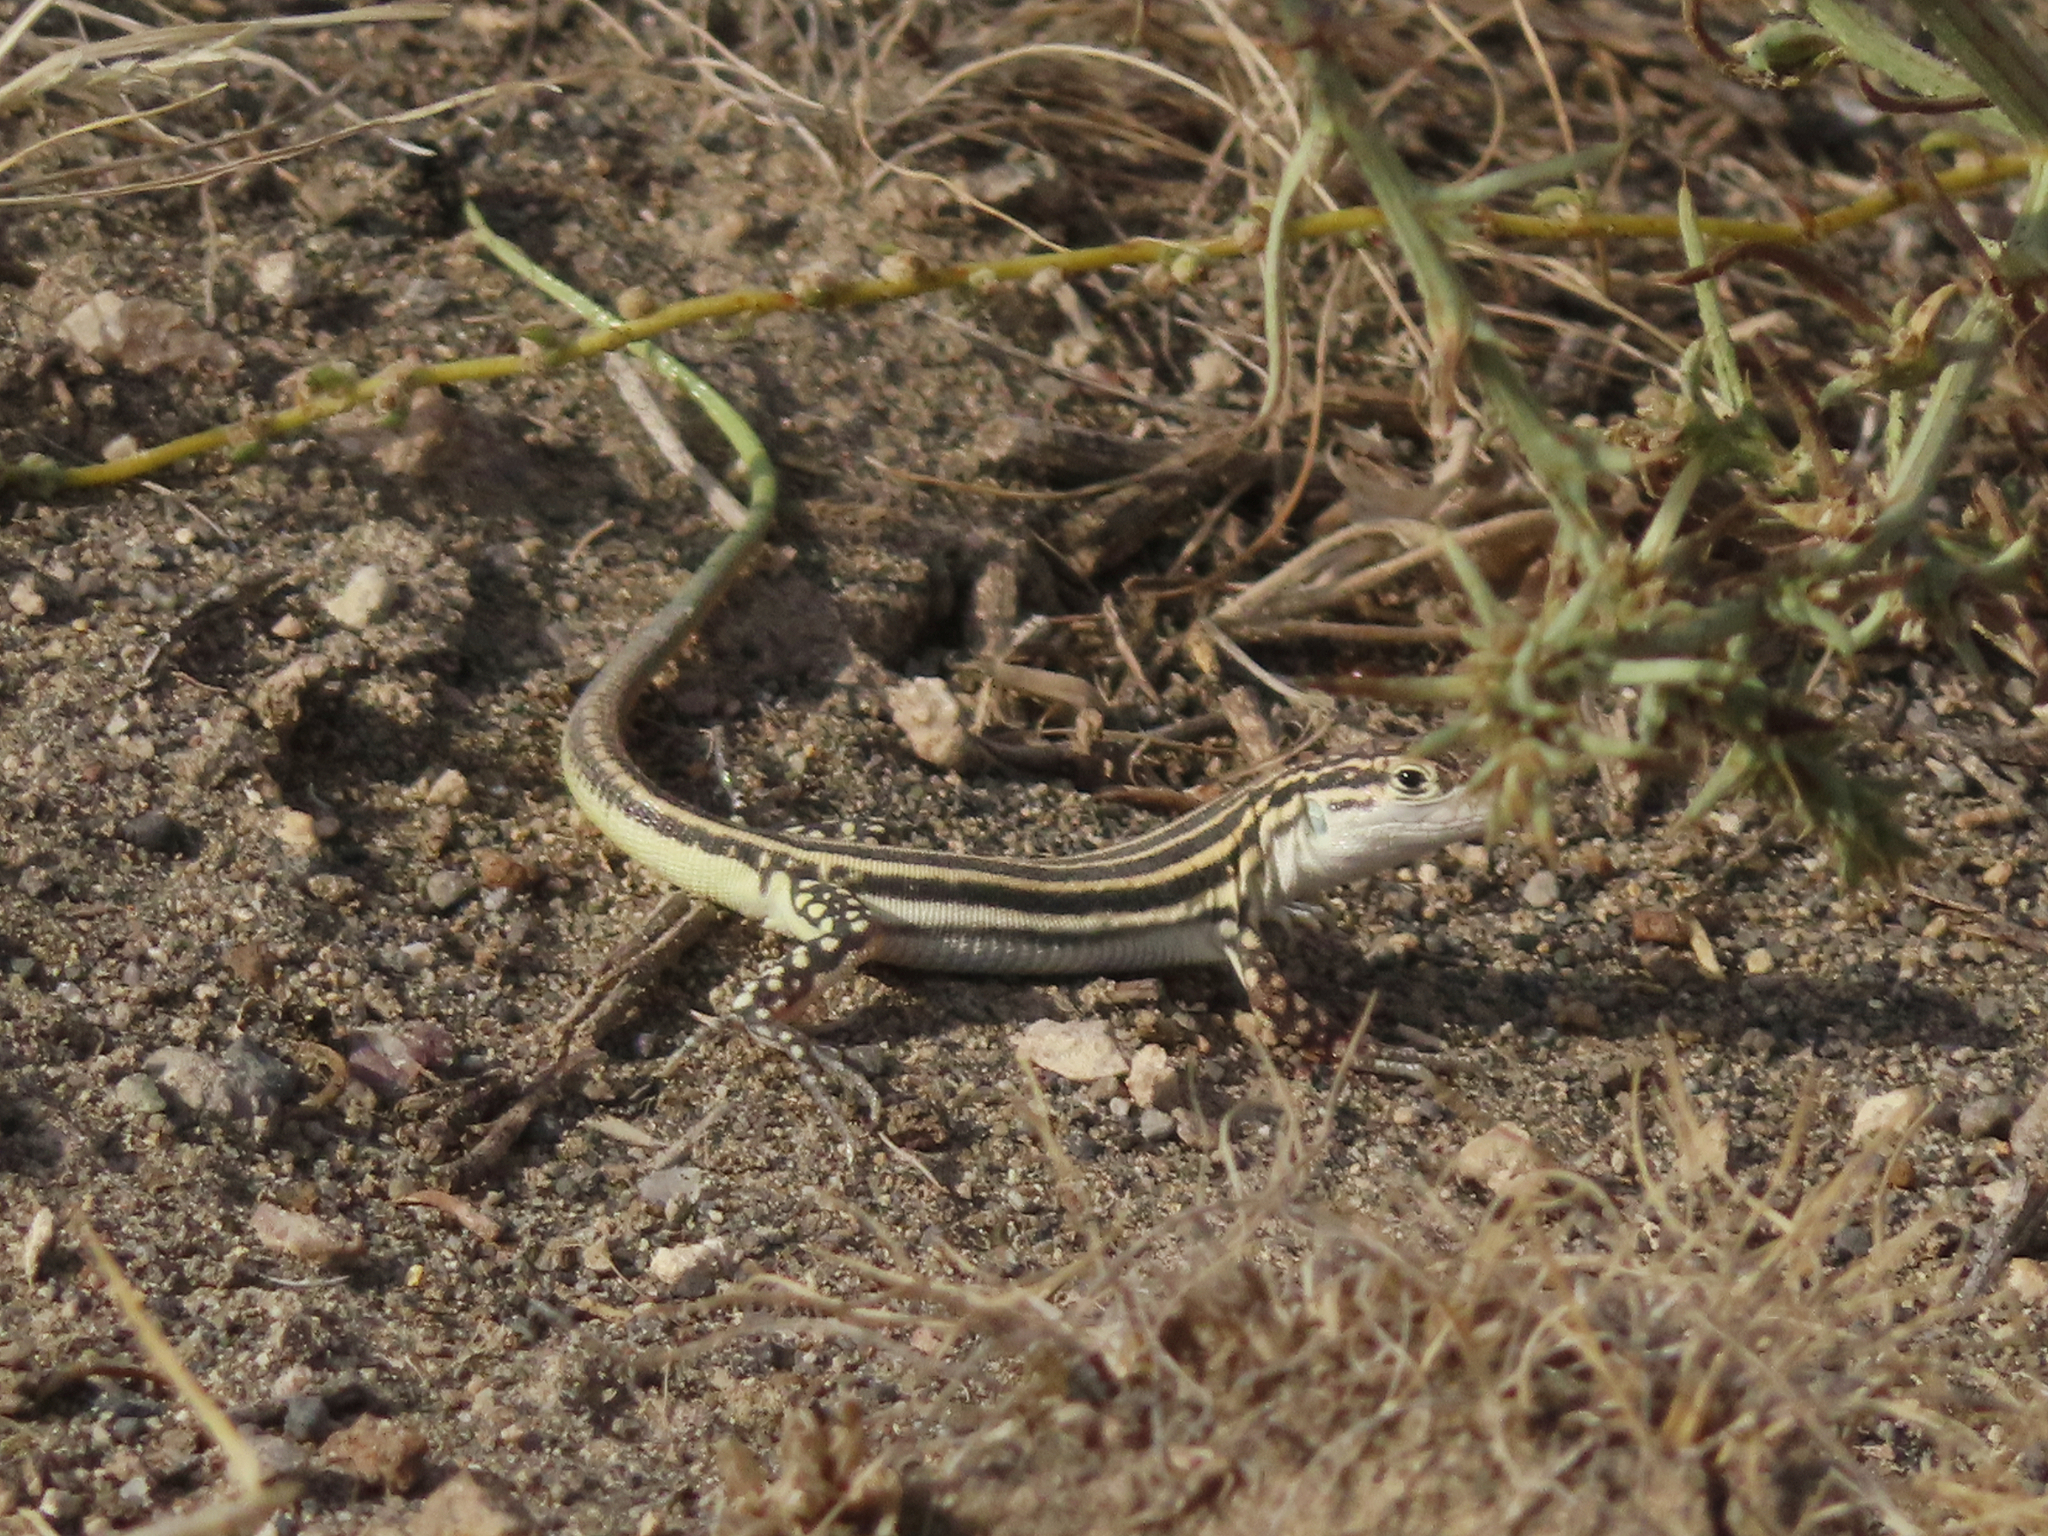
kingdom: Animalia
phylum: Chordata
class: Squamata
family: Lacertidae
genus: Eremias
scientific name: Eremias pleskei
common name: Pleske's racerunner
